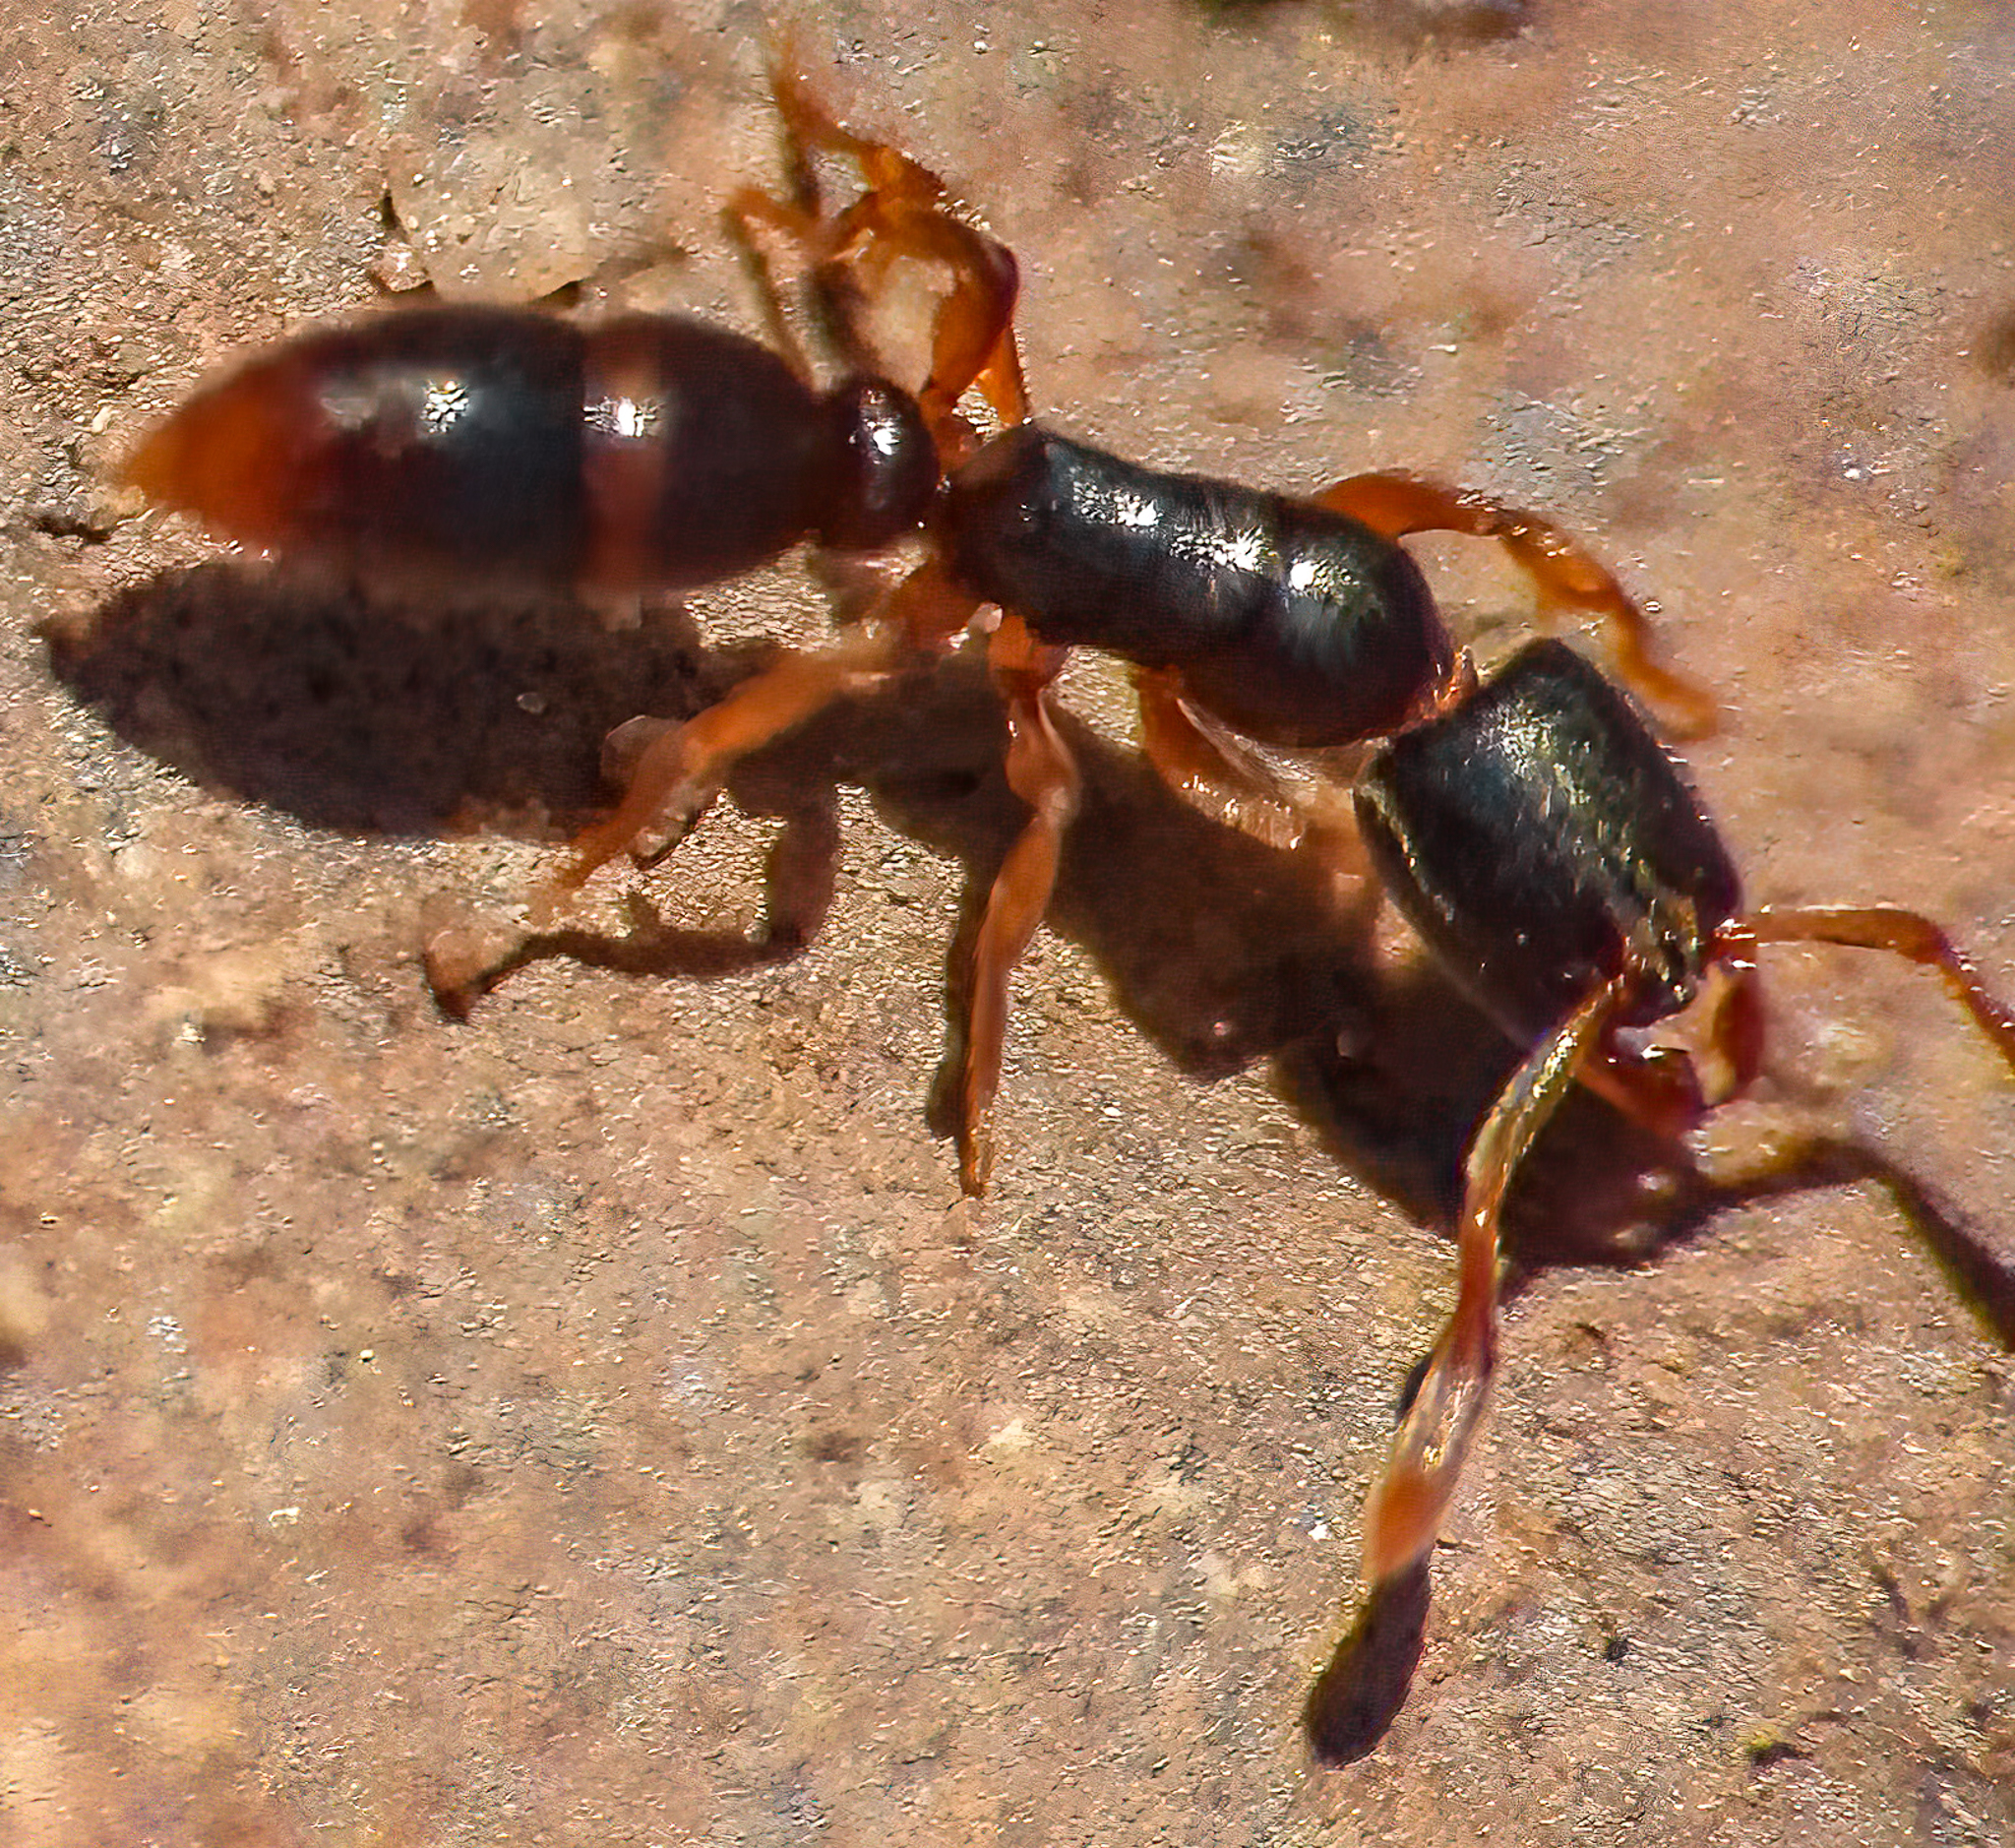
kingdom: Animalia
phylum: Arthropoda
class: Insecta
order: Hymenoptera
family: Formicidae
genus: Ponera
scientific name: Ponera pennsylvanica
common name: Pennsylvania ponera
